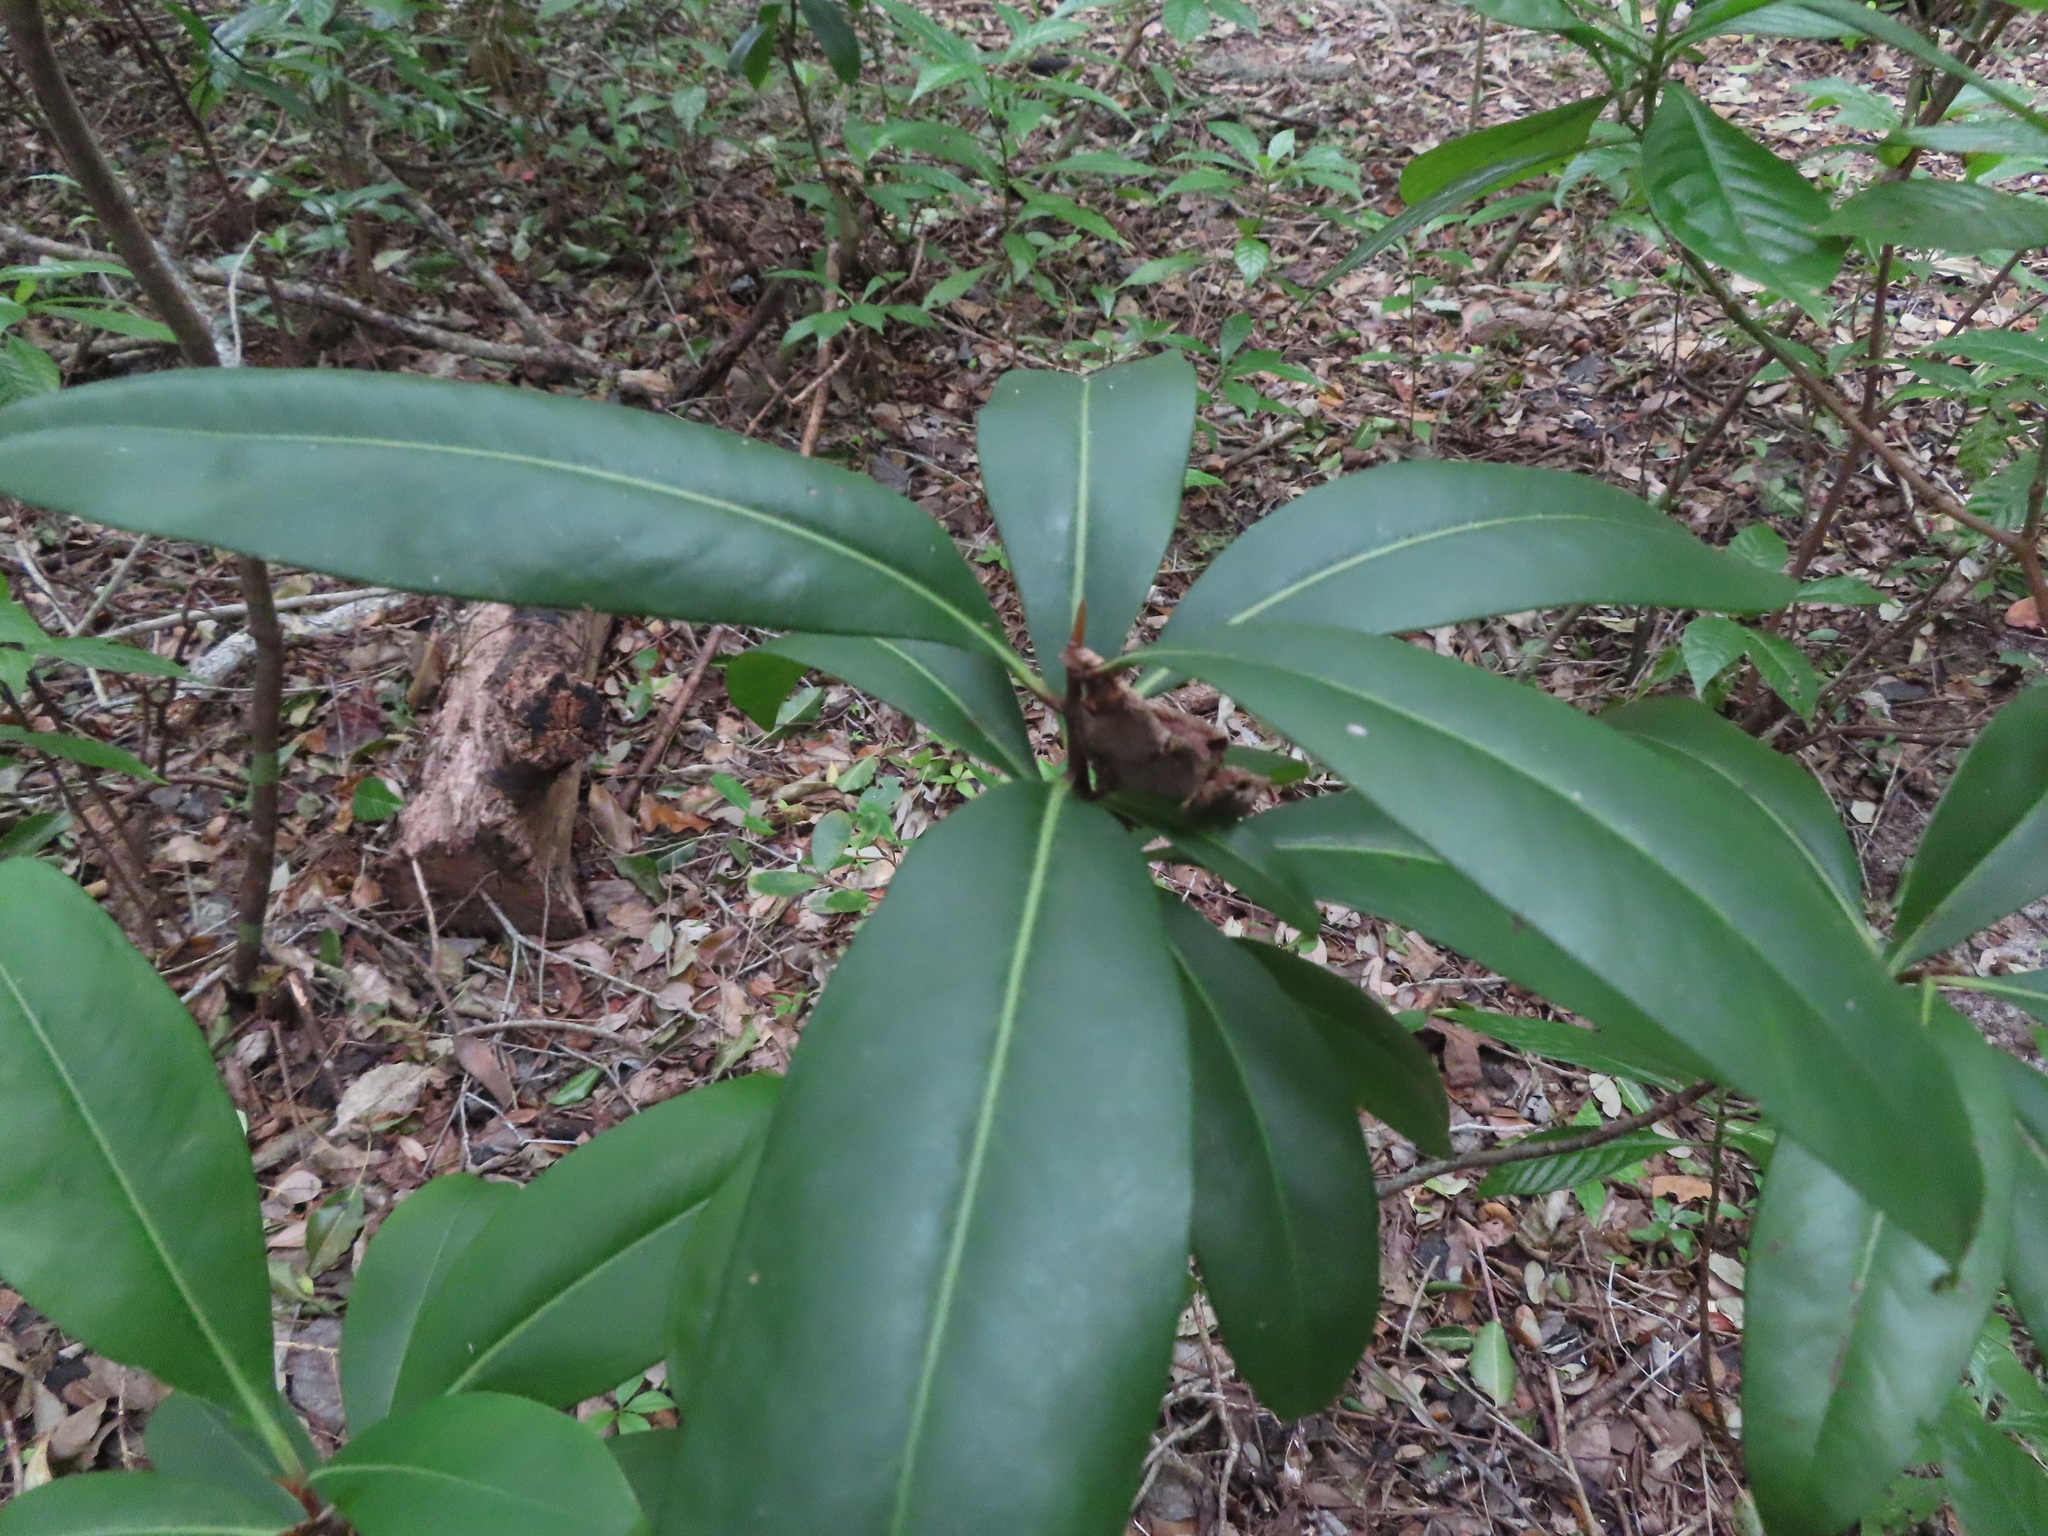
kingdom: Plantae
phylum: Tracheophyta
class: Magnoliopsida
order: Ericales
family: Primulaceae
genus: Ardisia
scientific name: Ardisia escallonioides
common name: Island marlberry
